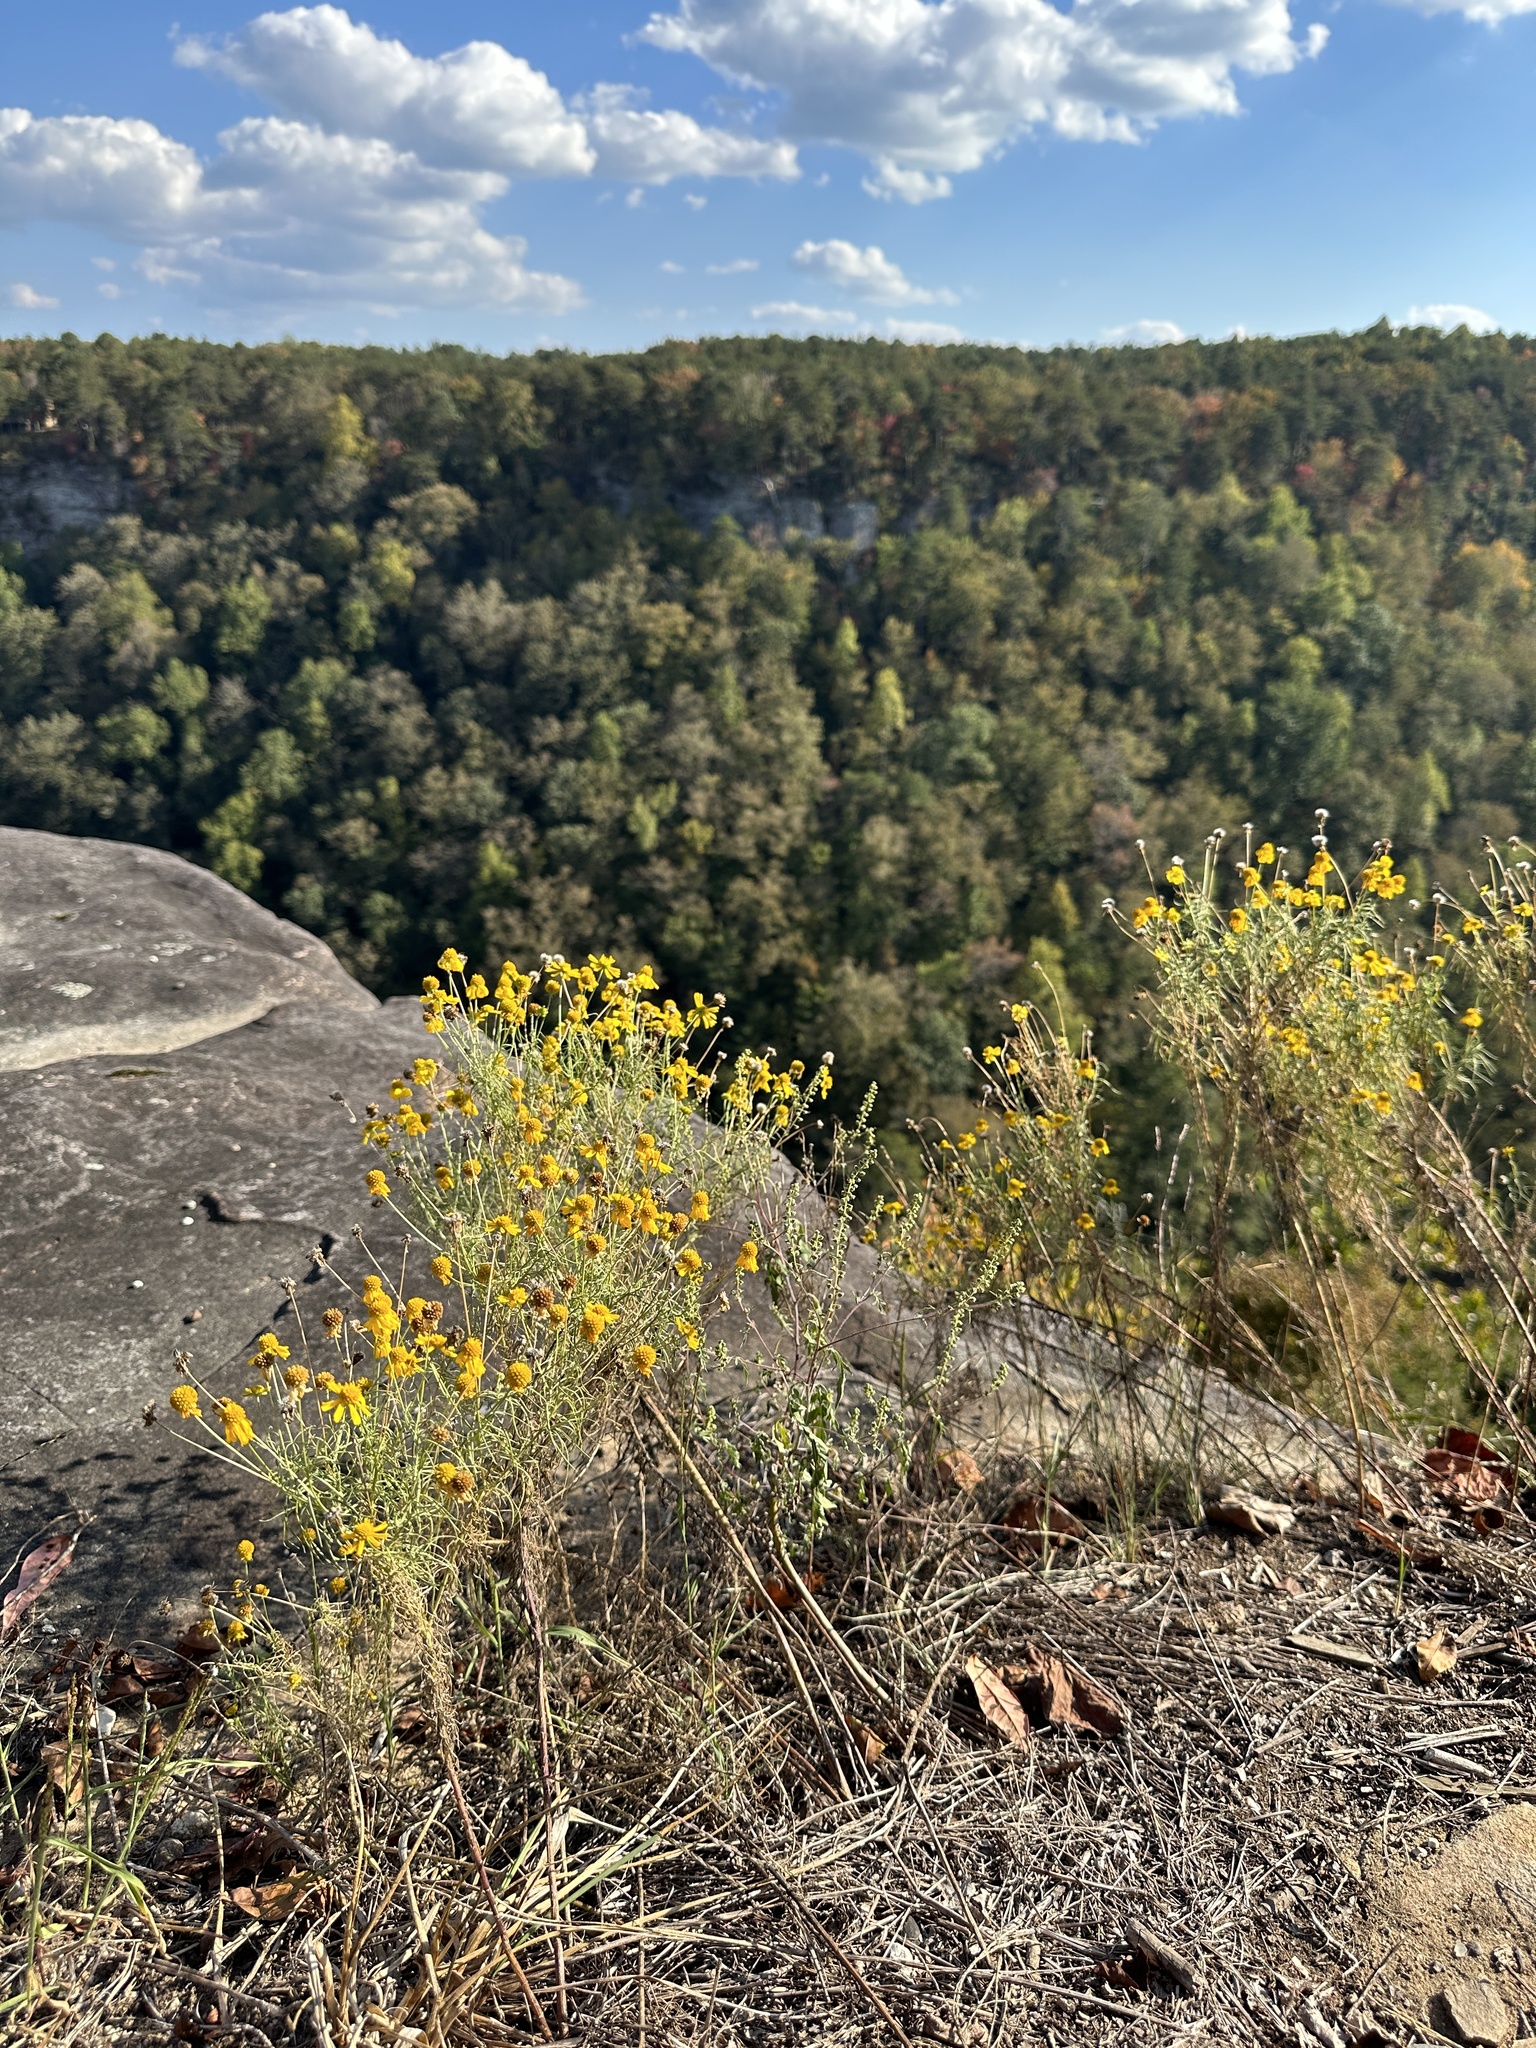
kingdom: Plantae
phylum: Tracheophyta
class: Magnoliopsida
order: Asterales
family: Asteraceae
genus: Helenium
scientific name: Helenium amarum
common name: Bitter sneezeweed
